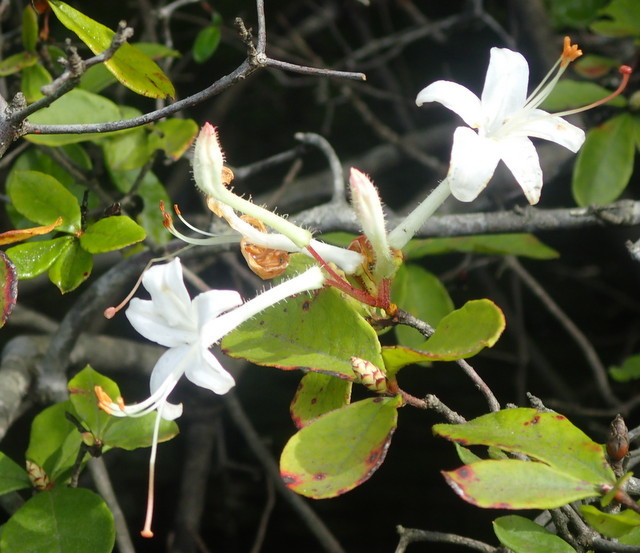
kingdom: Plantae
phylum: Tracheophyta
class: Magnoliopsida
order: Ericales
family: Ericaceae
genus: Rhododendron
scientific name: Rhododendron serrulatum
